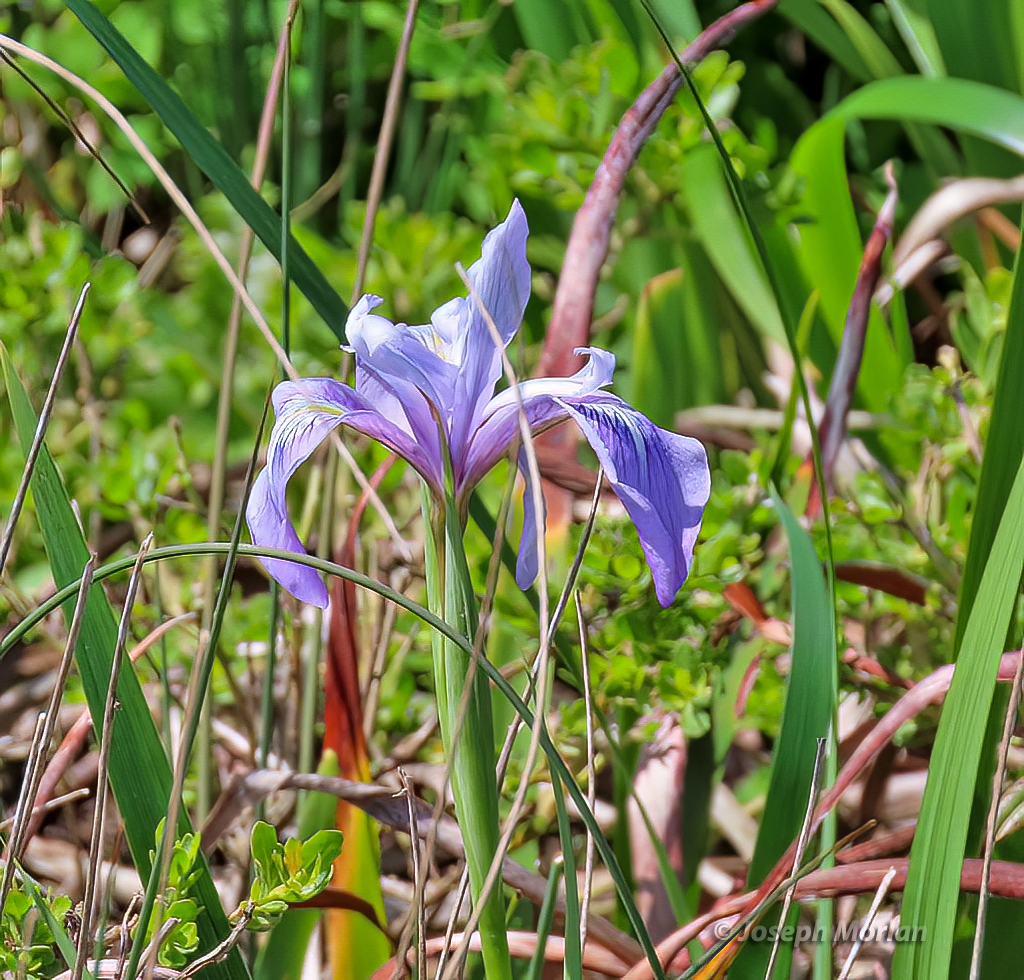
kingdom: Plantae
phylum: Tracheophyta
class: Liliopsida
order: Asparagales
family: Iridaceae
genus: Iris
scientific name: Iris douglasiana
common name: Marin iris
